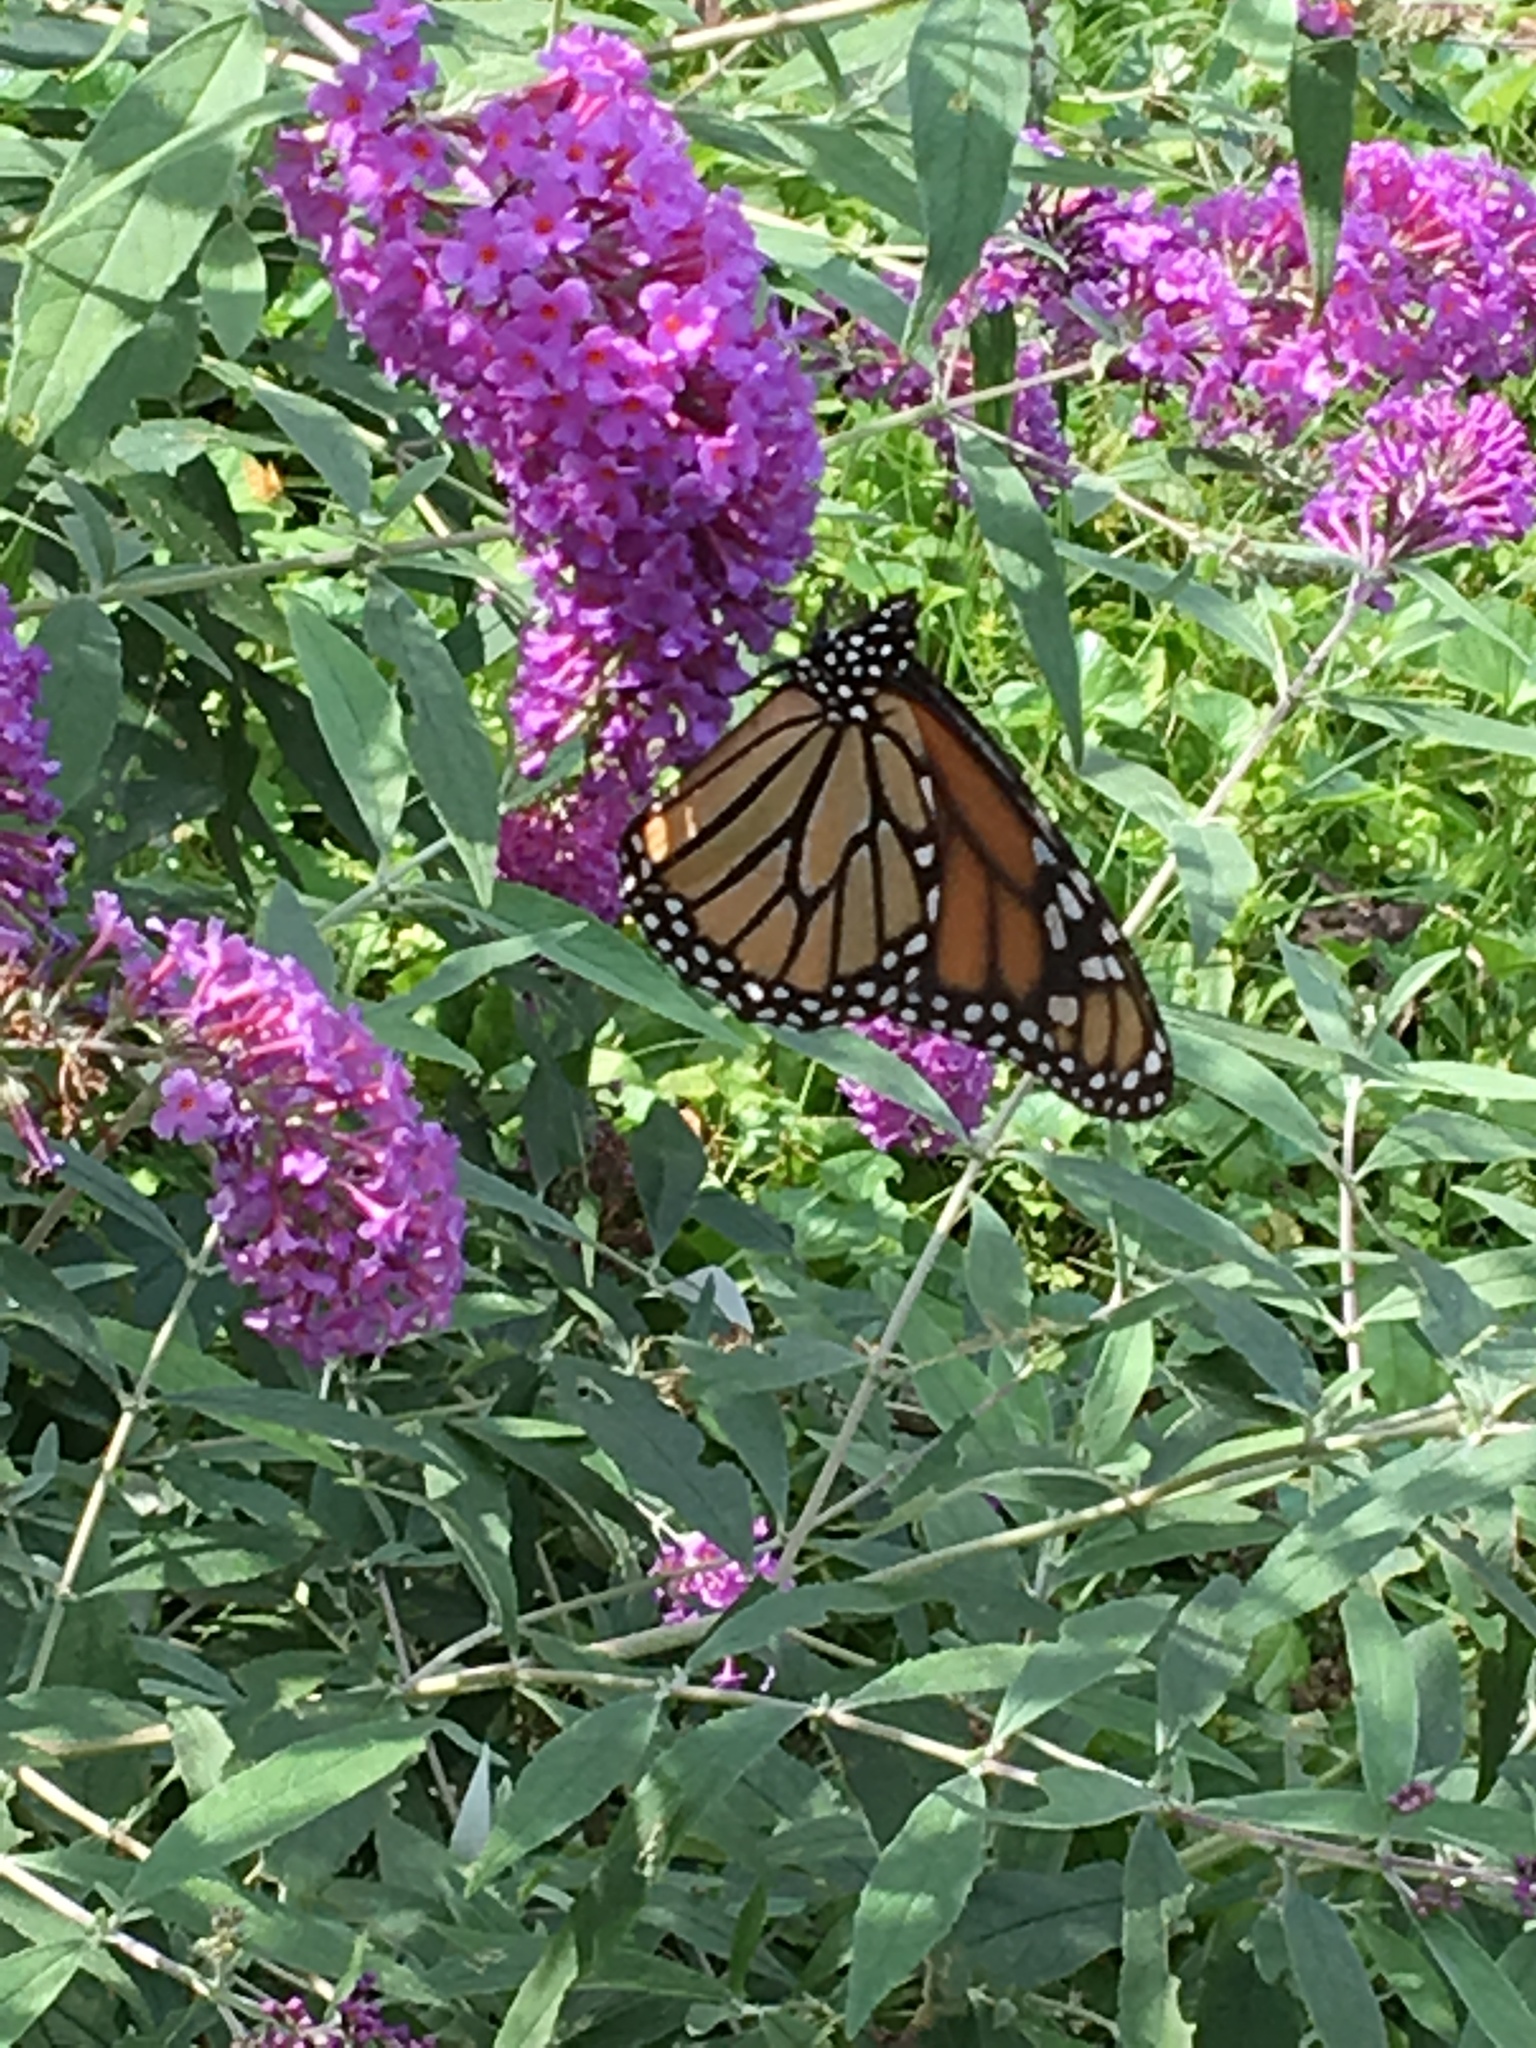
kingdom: Animalia
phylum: Arthropoda
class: Insecta
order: Lepidoptera
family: Nymphalidae
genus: Danaus
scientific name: Danaus plexippus
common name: Monarch
